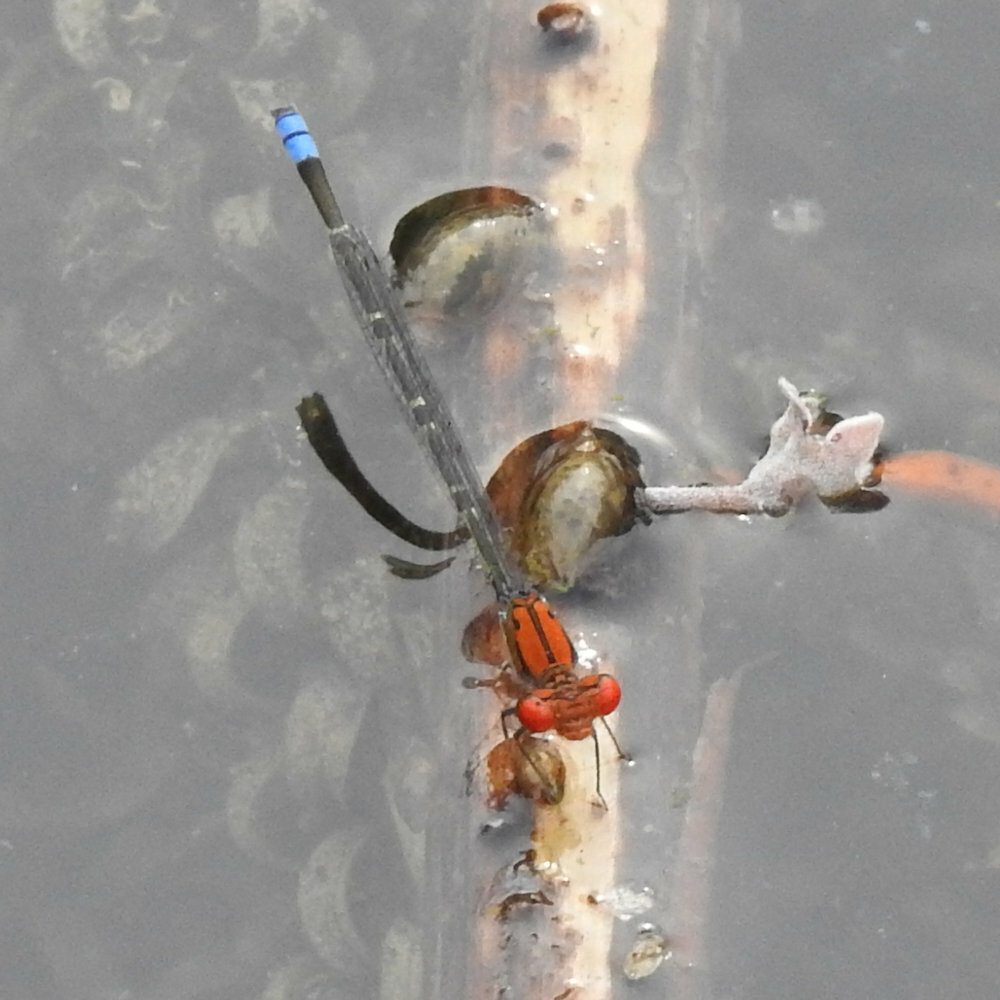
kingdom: Animalia
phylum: Arthropoda
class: Insecta
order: Odonata
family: Coenagrionidae
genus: Pseudagrion
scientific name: Pseudagrion massaicum
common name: Masai sprite
